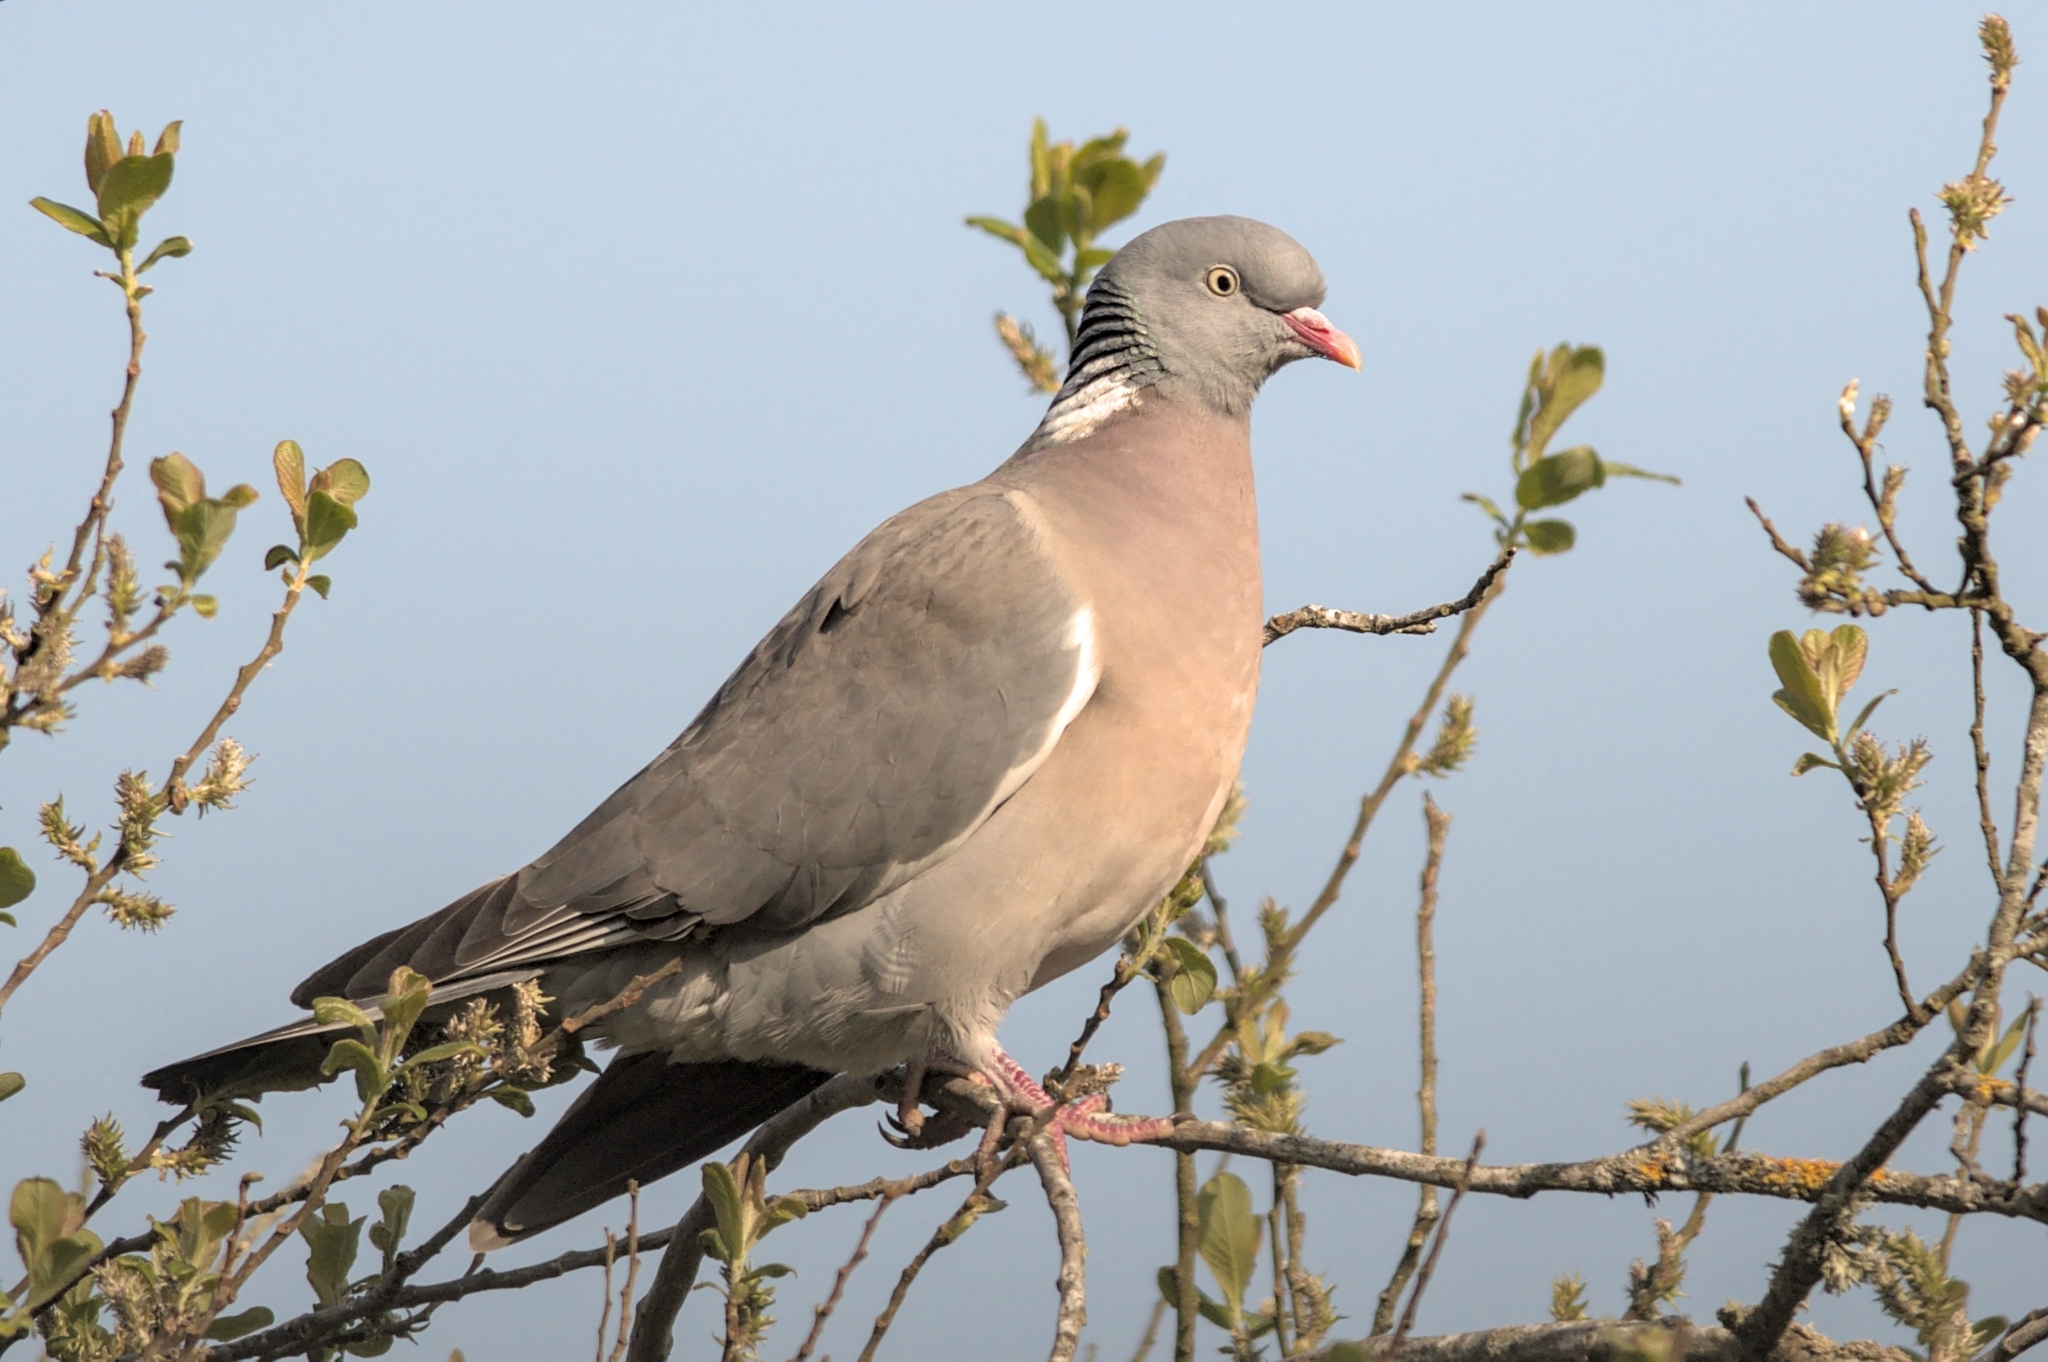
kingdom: Animalia
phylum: Chordata
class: Aves
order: Columbiformes
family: Columbidae
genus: Columba
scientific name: Columba palumbus
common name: Common wood pigeon
